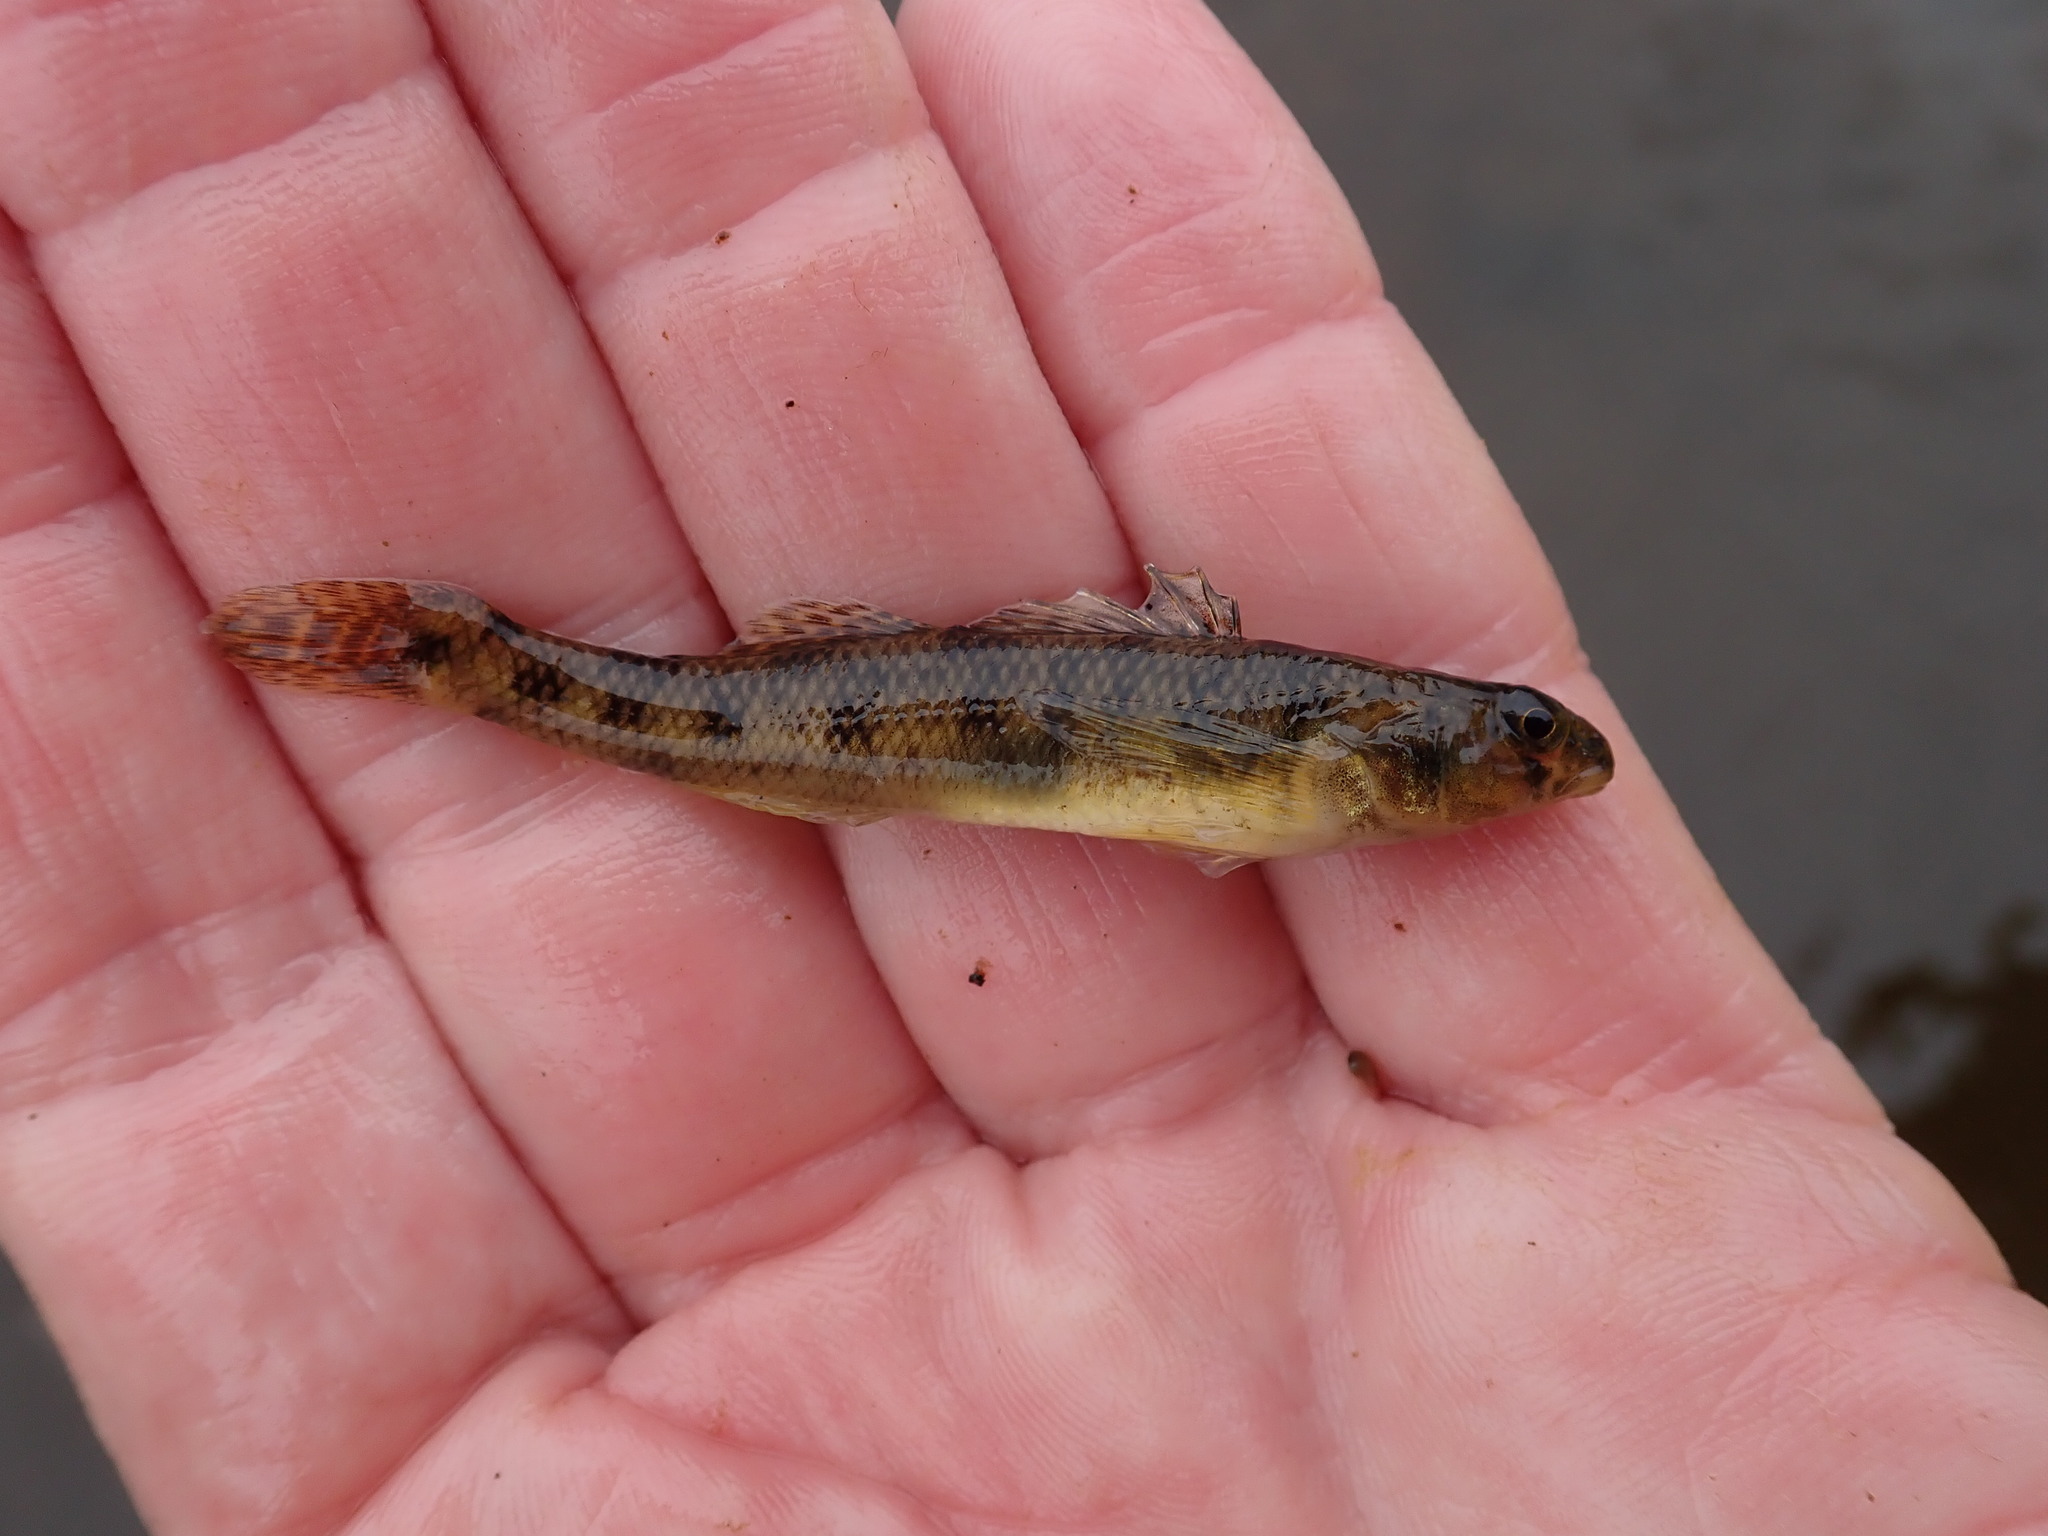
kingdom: Animalia
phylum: Chordata
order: Perciformes
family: Percidae
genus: Etheostoma
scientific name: Etheostoma nigrum
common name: Johnny darter
